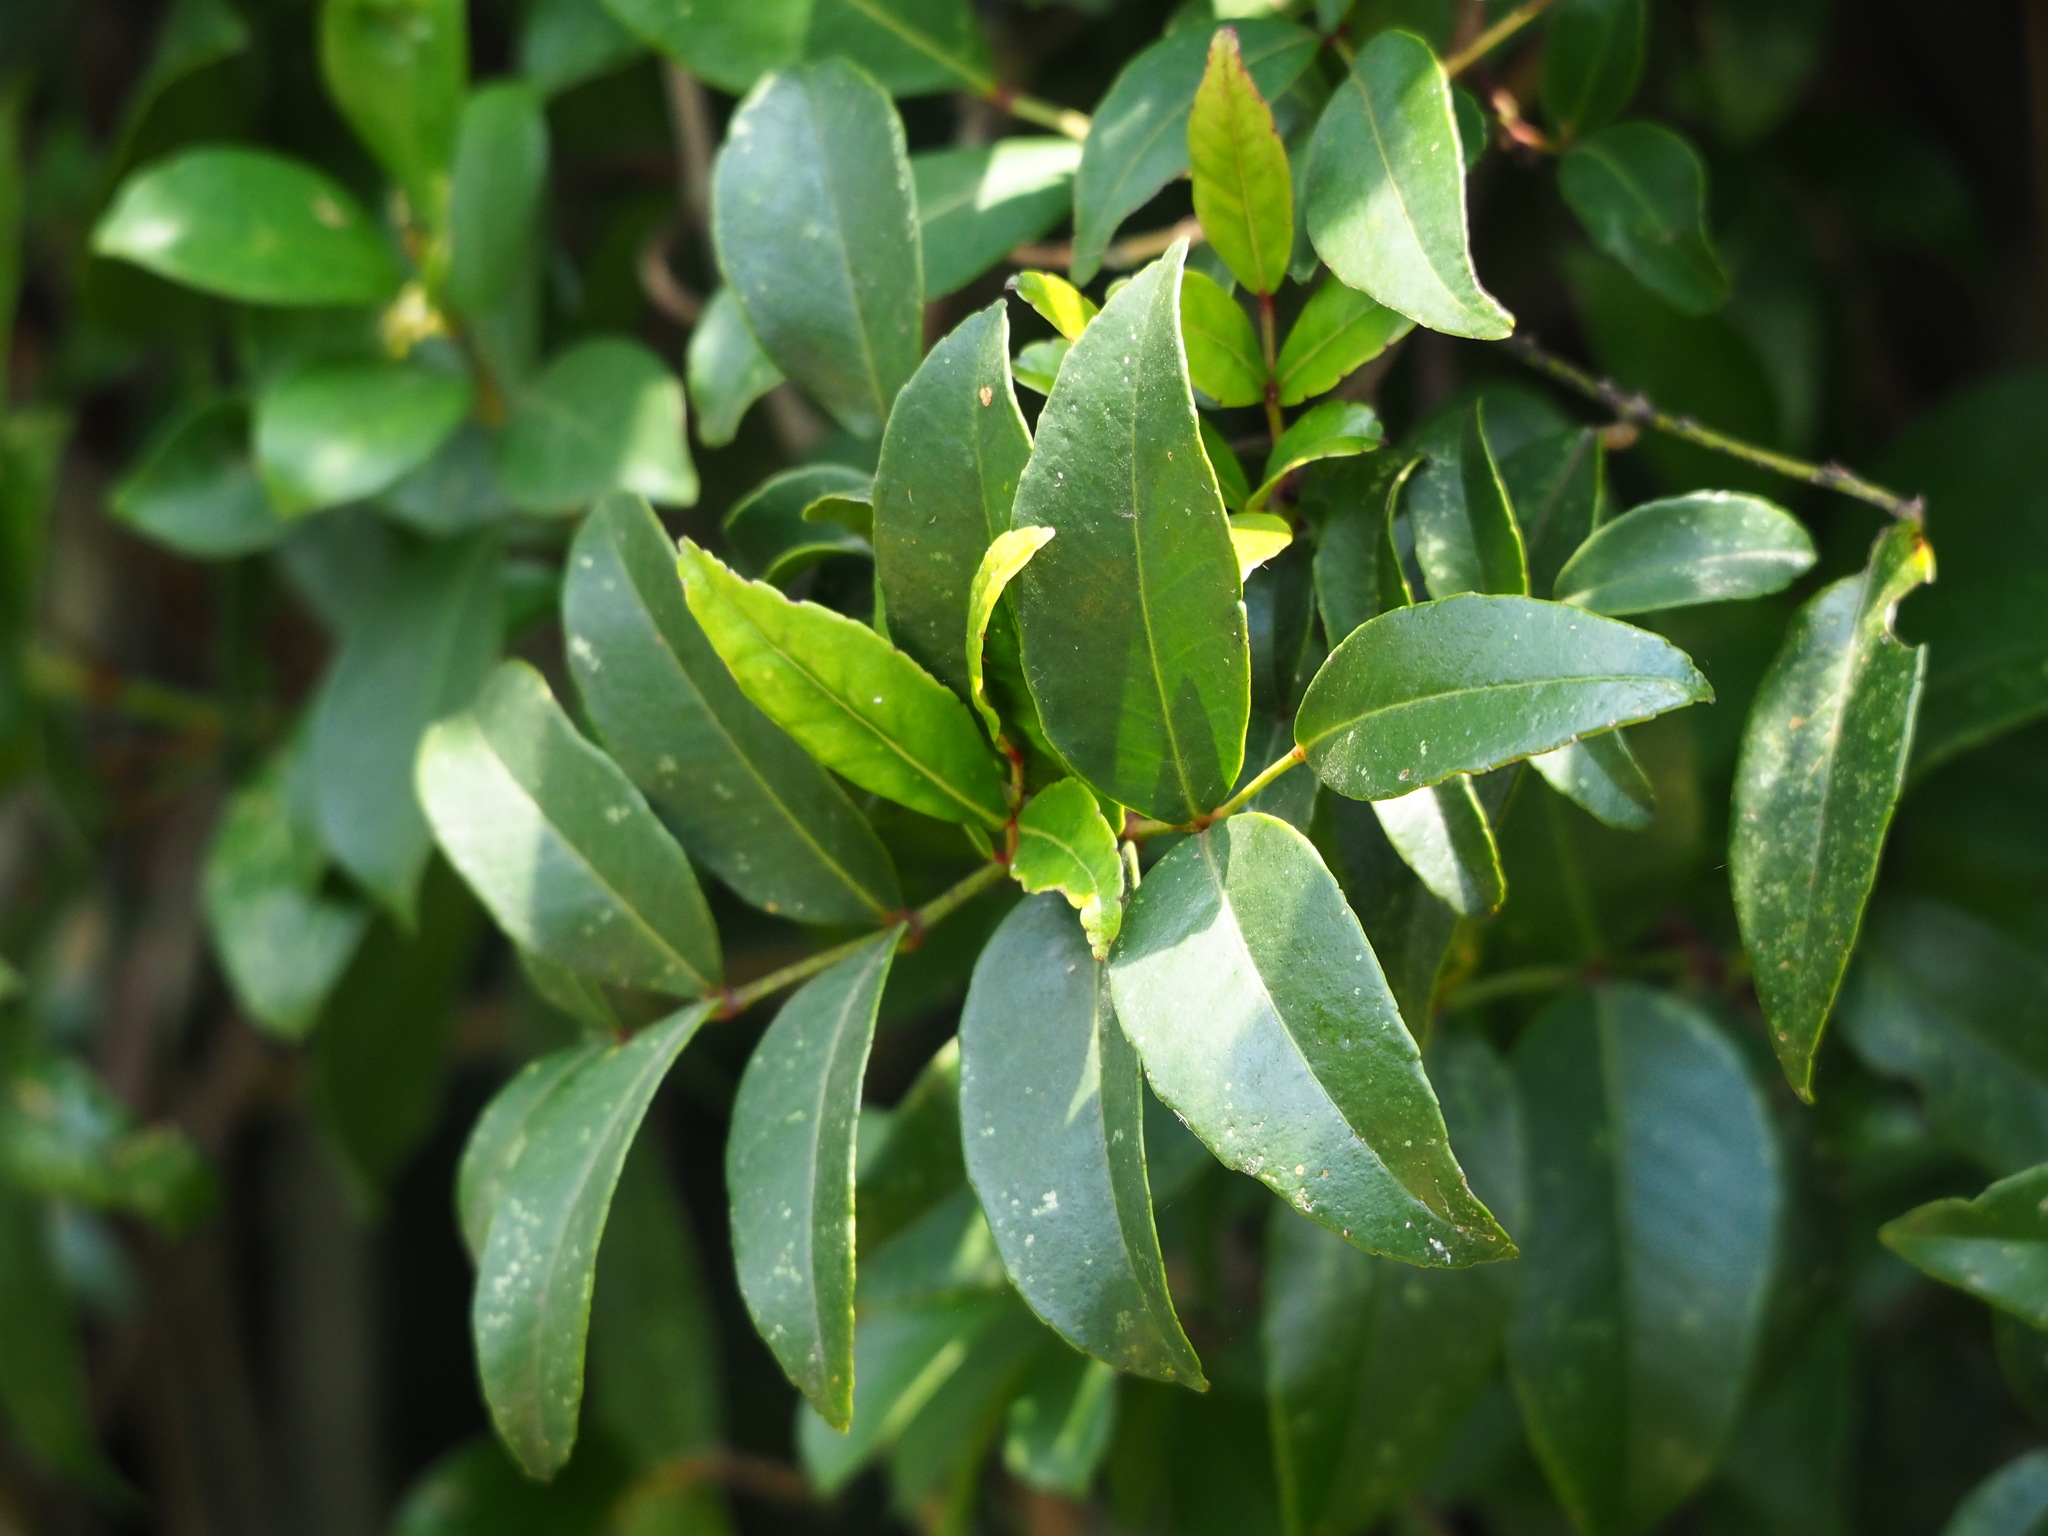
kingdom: Plantae
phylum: Tracheophyta
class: Magnoliopsida
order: Sapindales
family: Rutaceae
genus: Zanthoxylum
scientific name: Zanthoxylum nitidum
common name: Shiny-leaf prickly-ash
